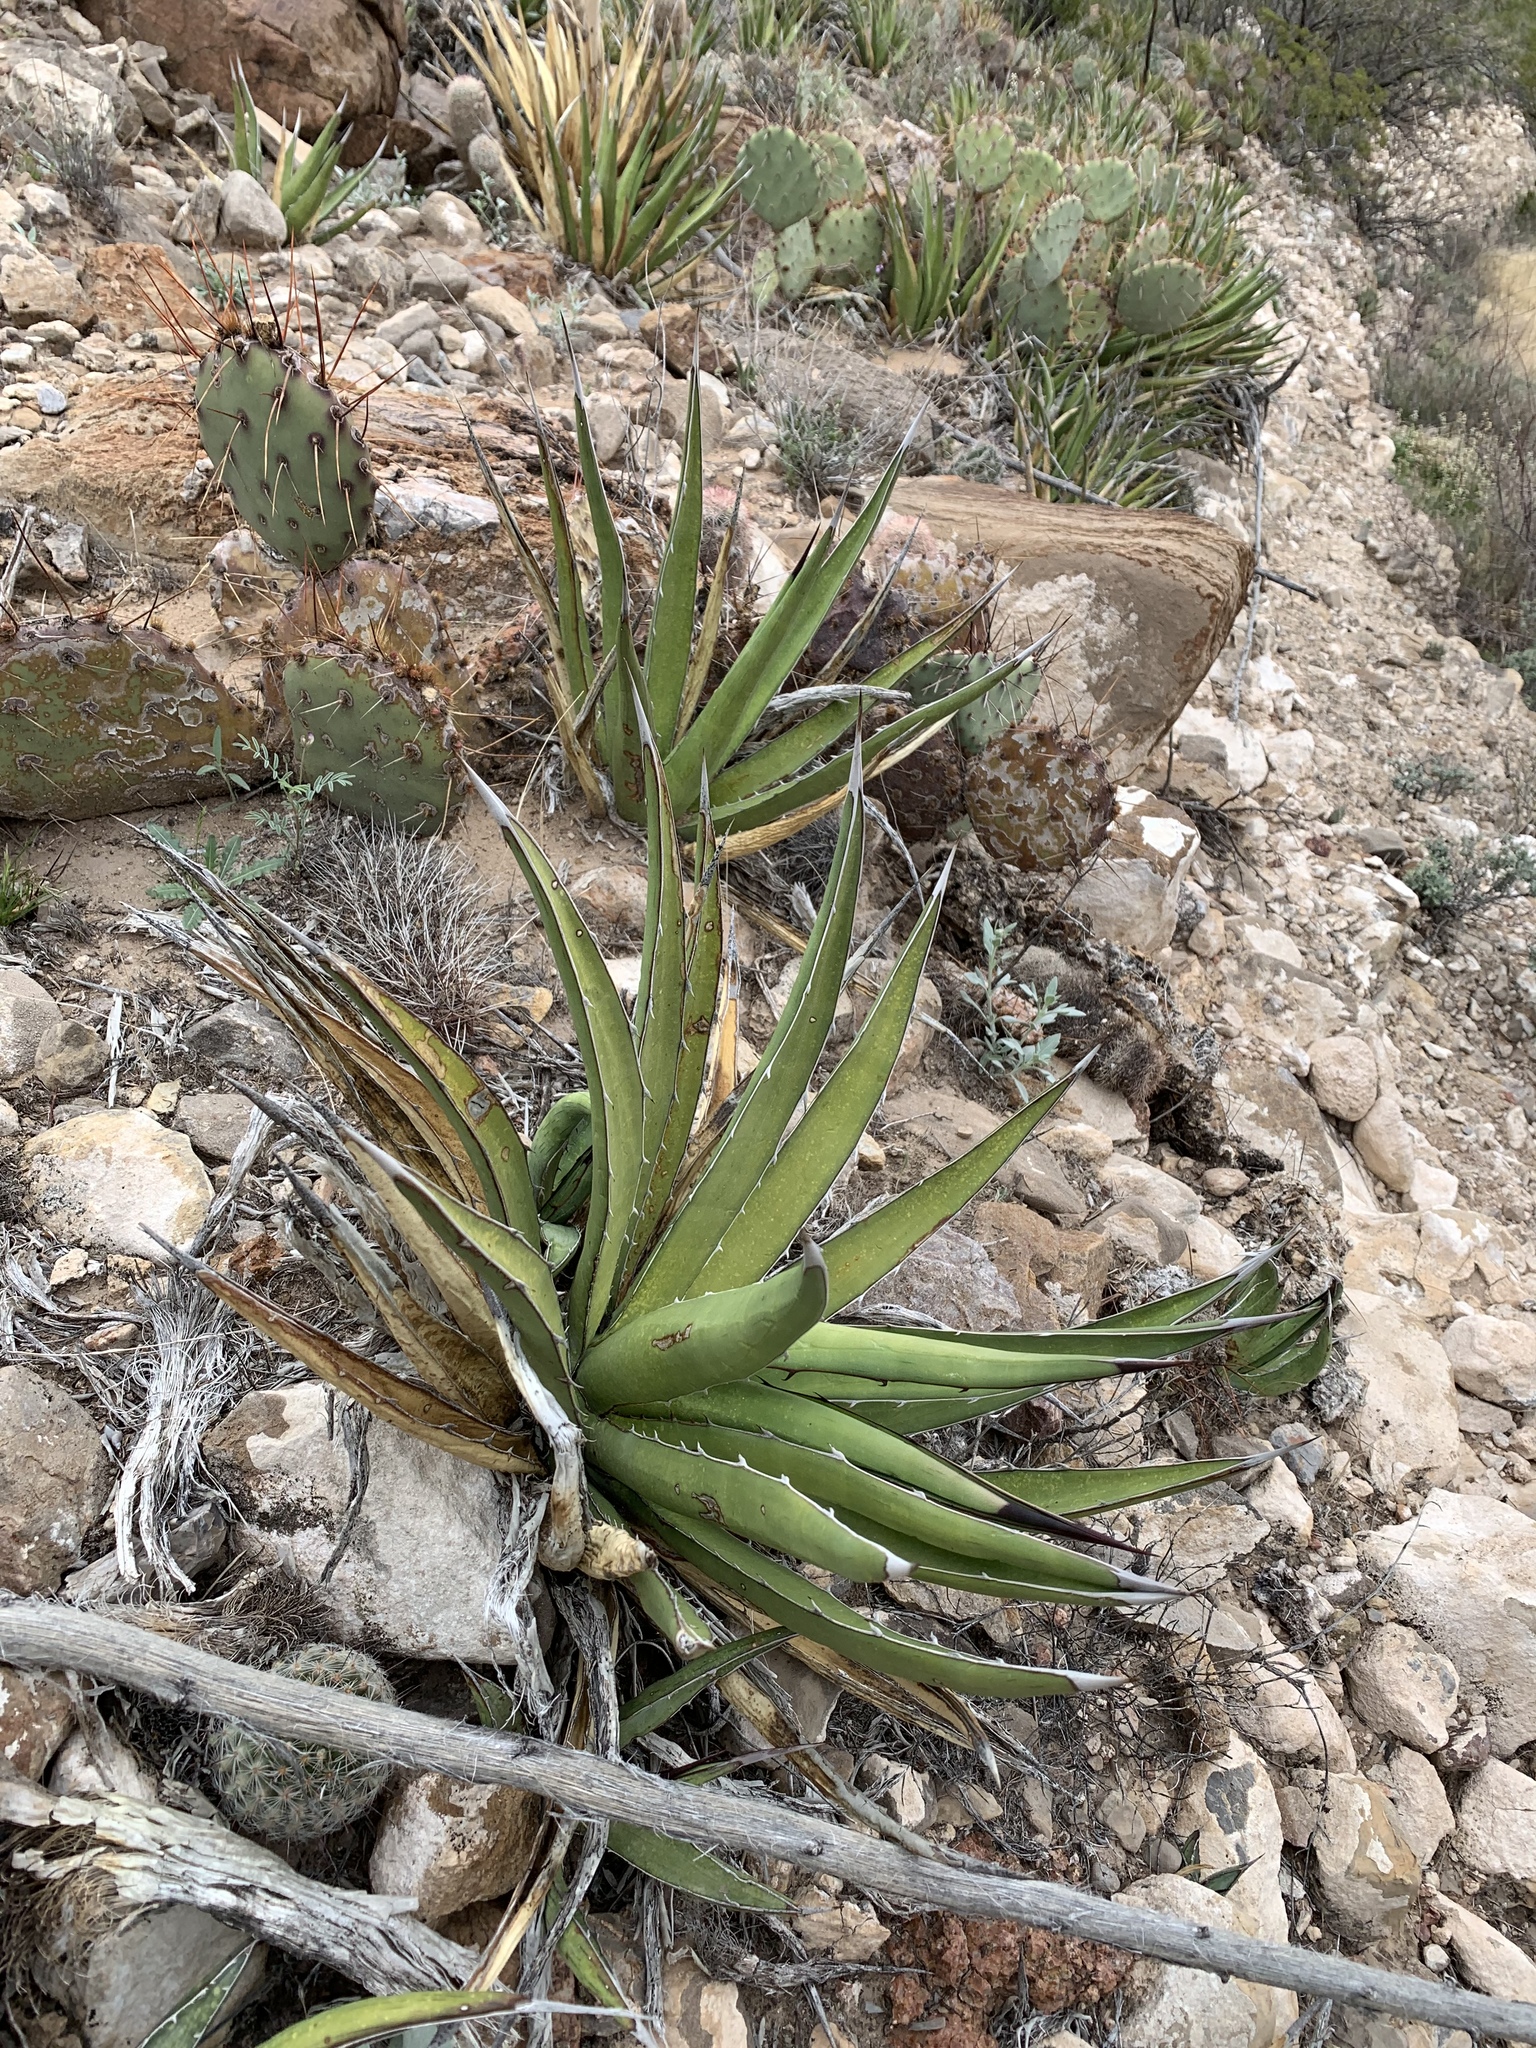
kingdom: Plantae
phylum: Tracheophyta
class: Liliopsida
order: Asparagales
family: Asparagaceae
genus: Agave
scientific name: Agave lechuguilla
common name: Lecheguilla agave
